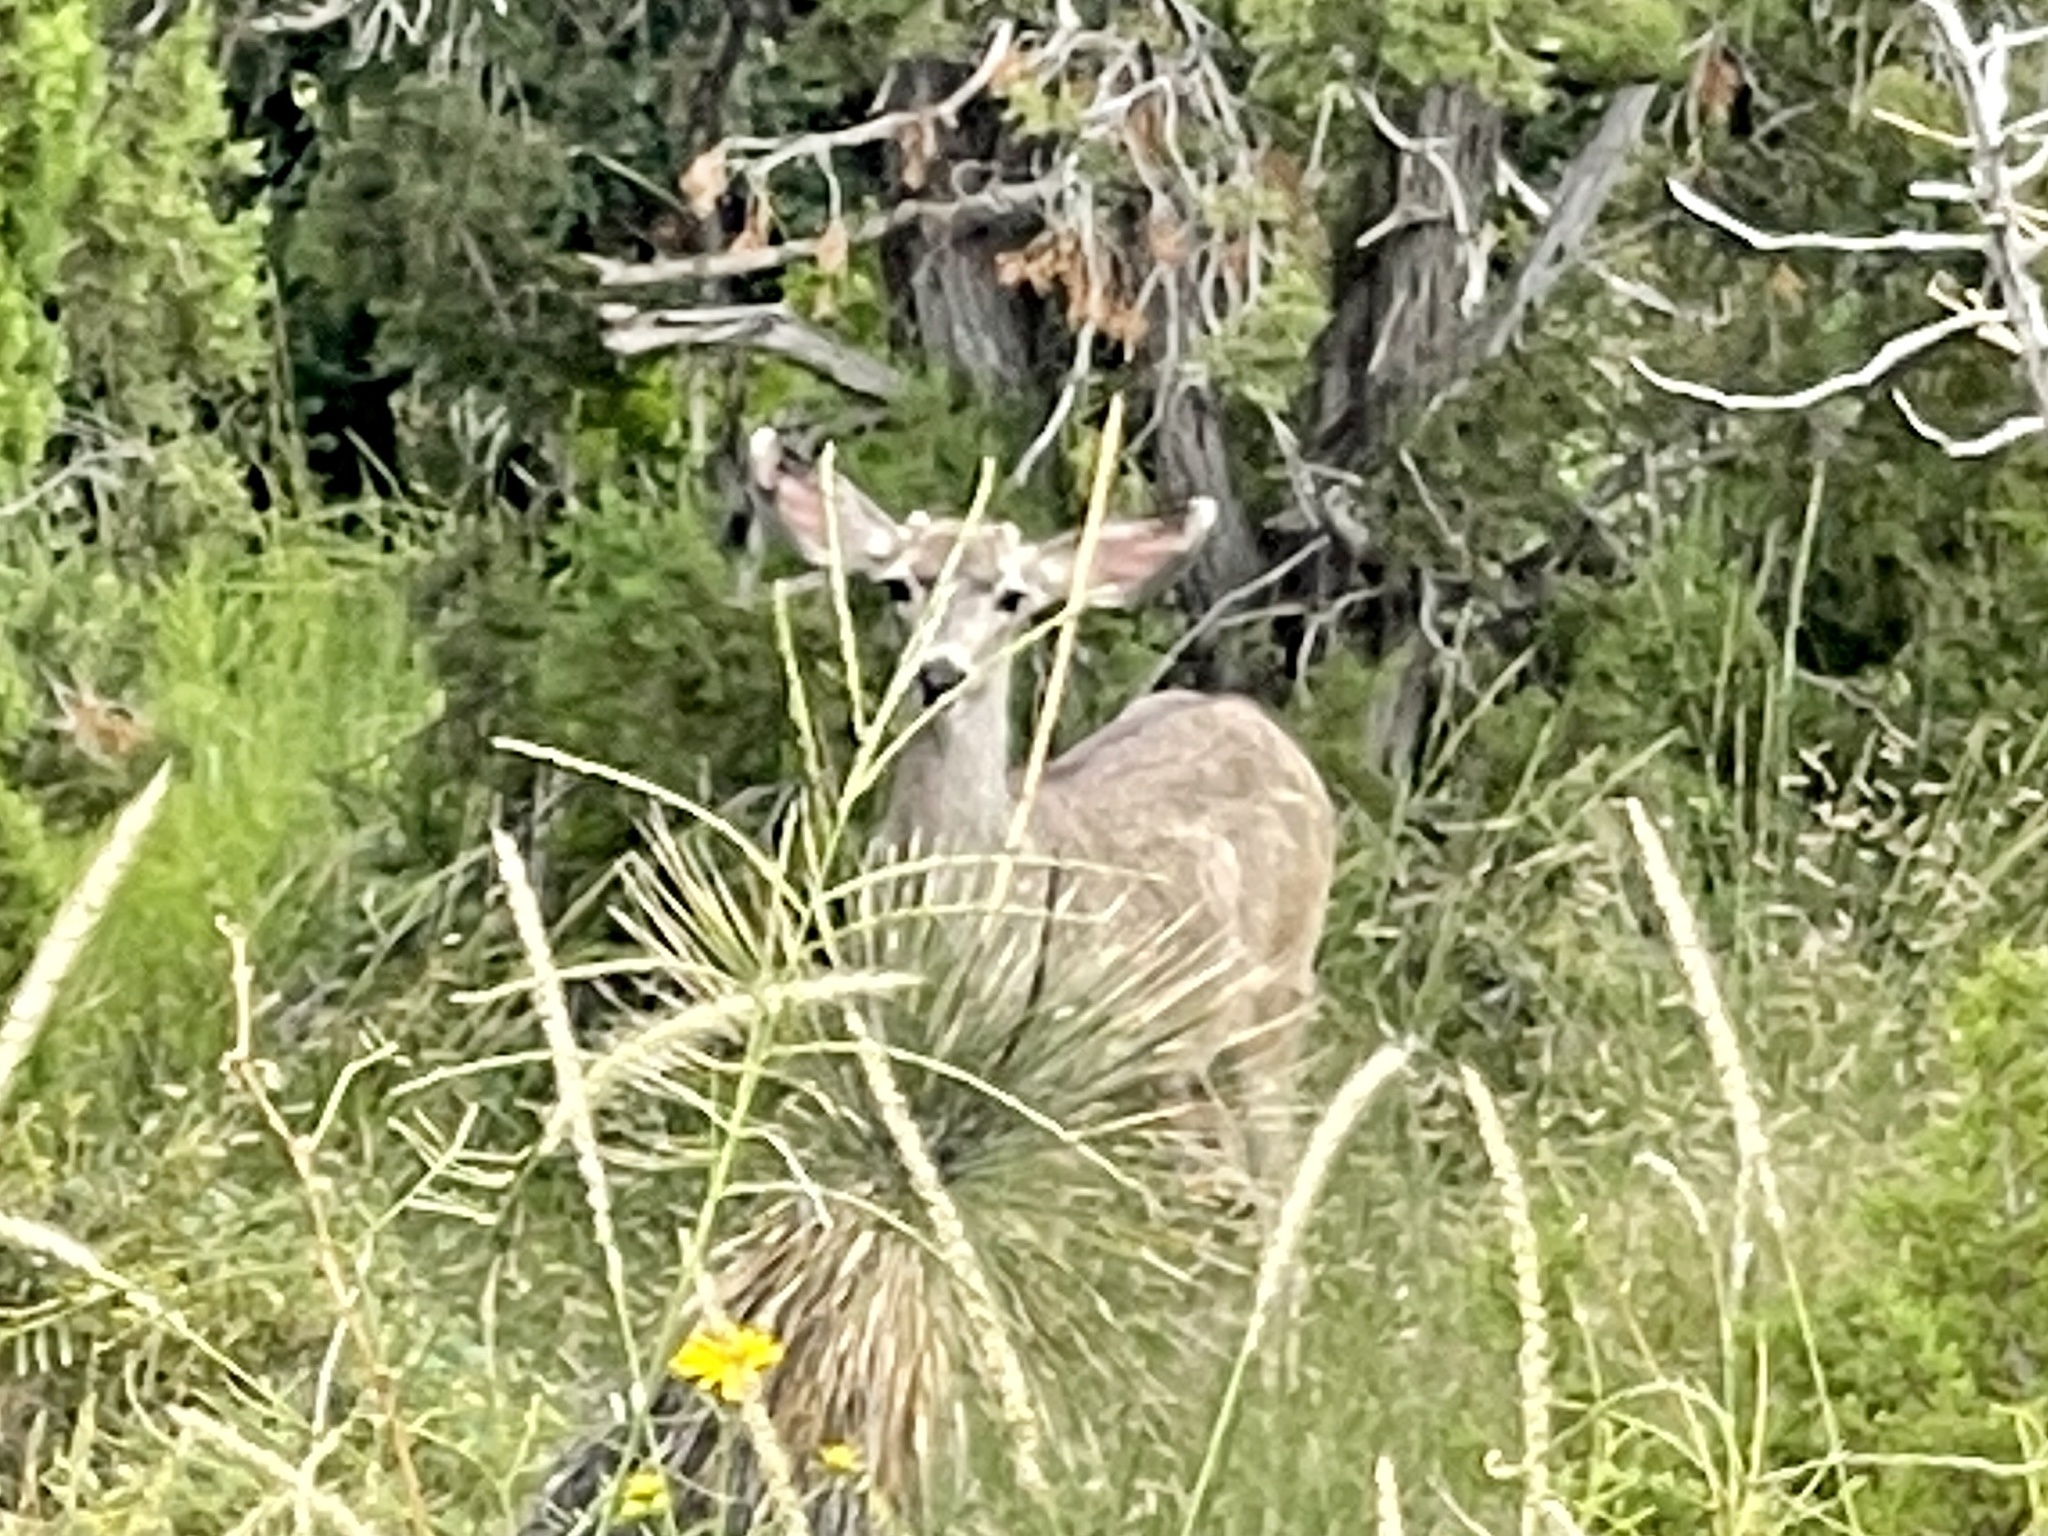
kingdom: Animalia
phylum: Chordata
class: Mammalia
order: Artiodactyla
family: Cervidae
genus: Odocoileus
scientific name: Odocoileus hemionus
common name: Mule deer
